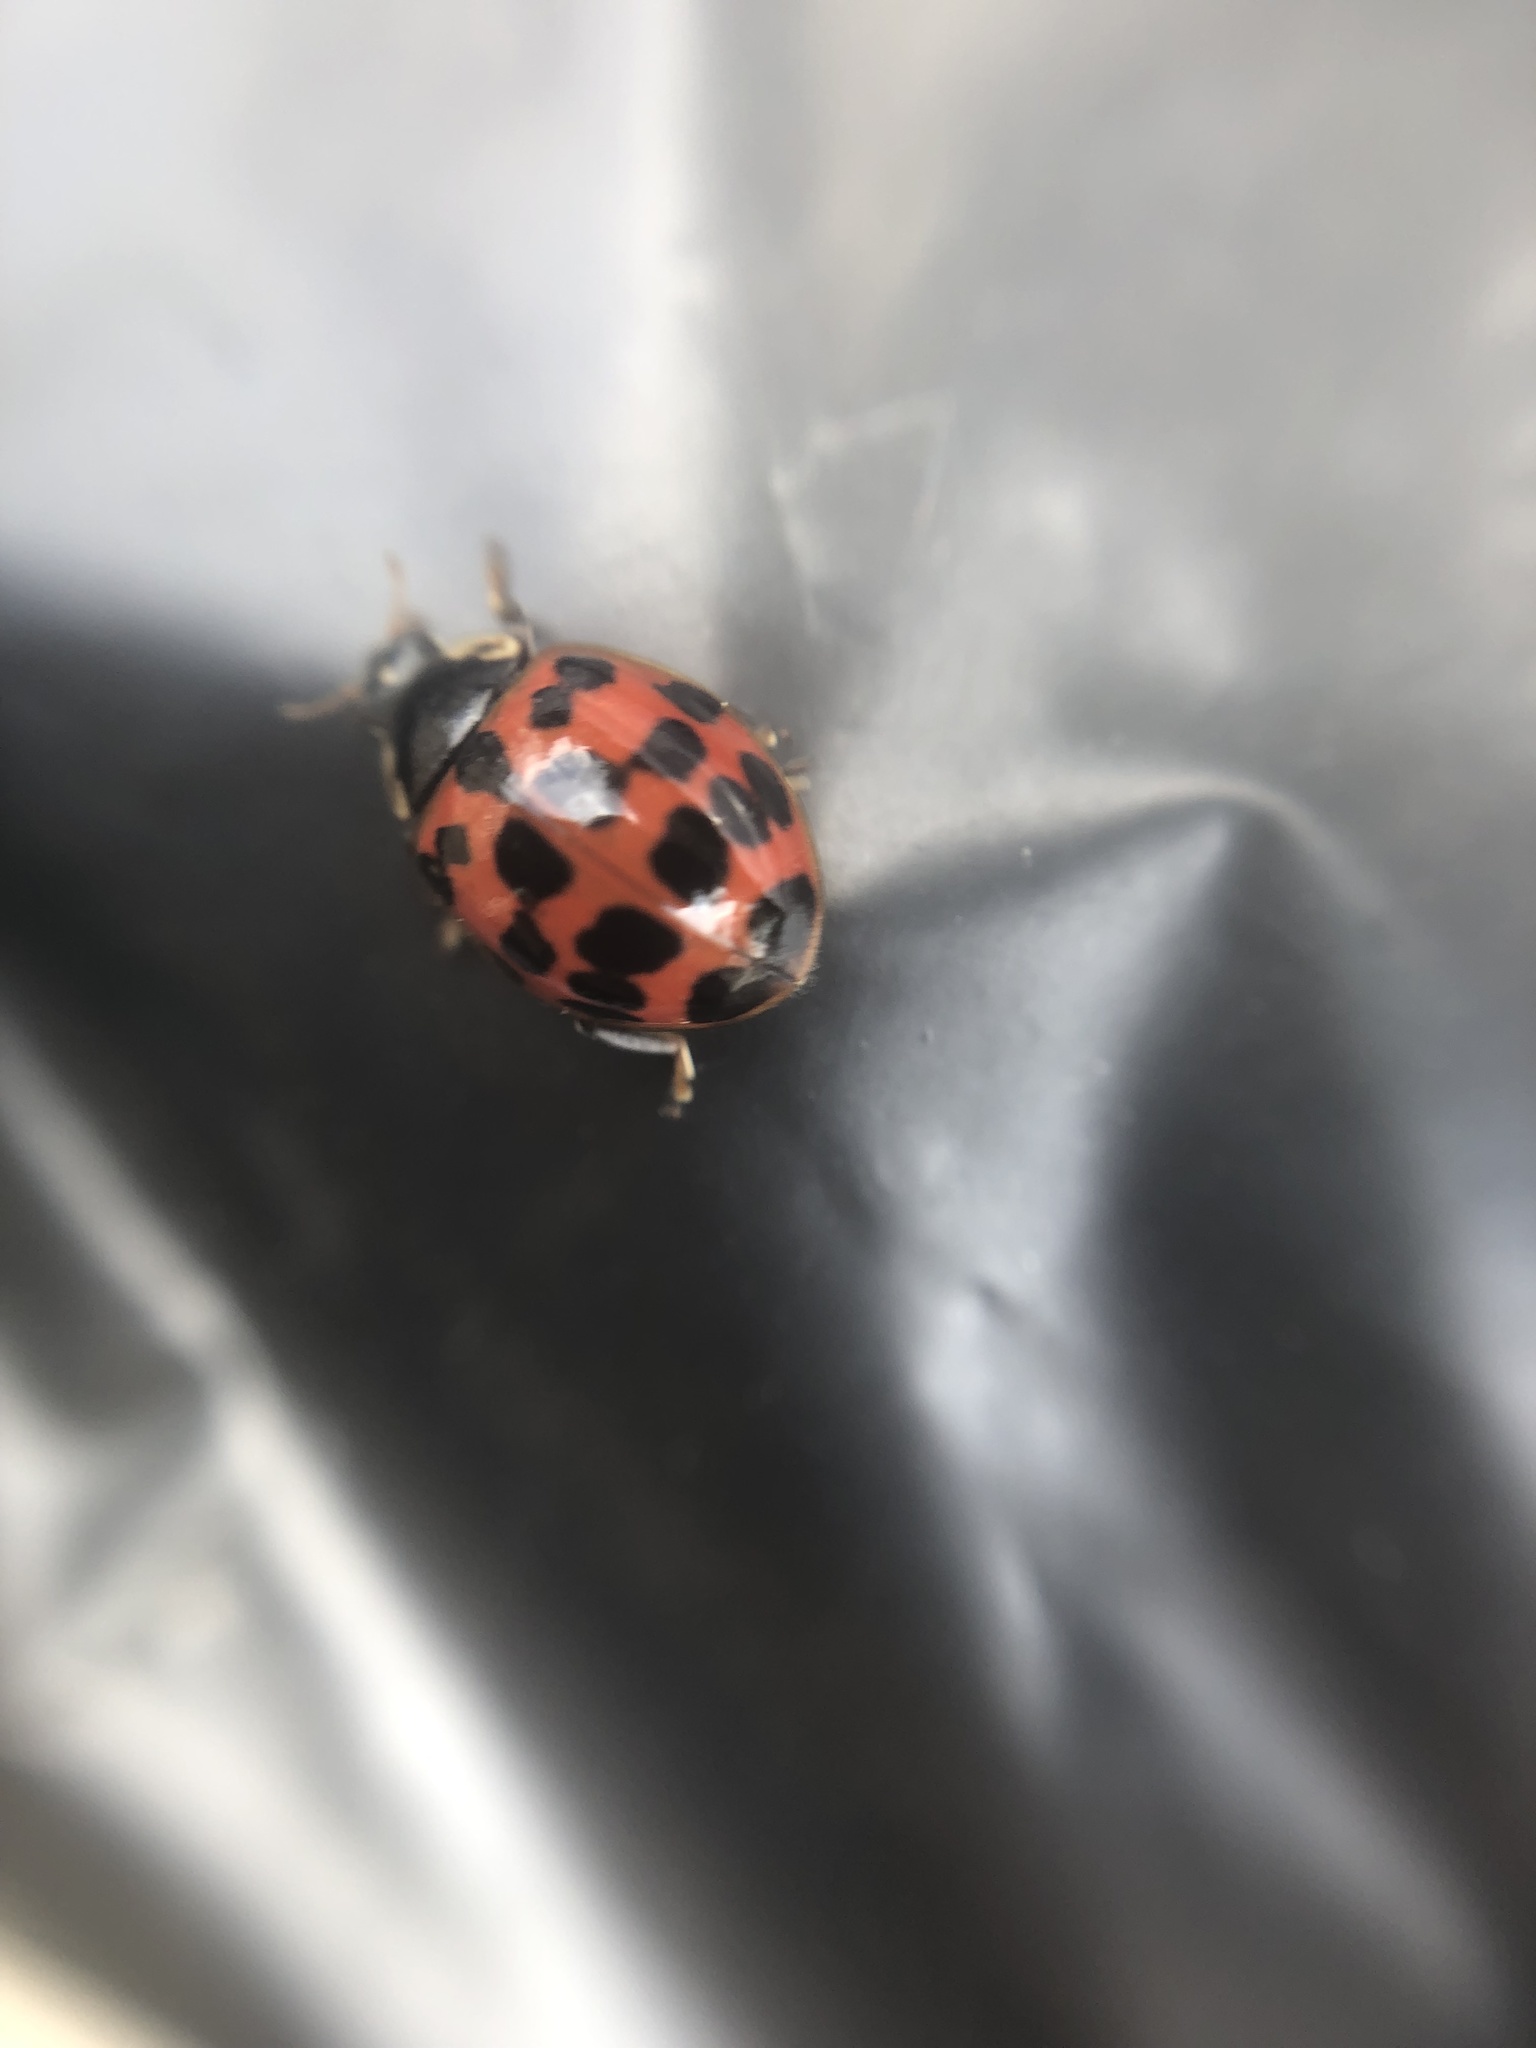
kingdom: Animalia
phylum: Arthropoda
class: Insecta
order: Coleoptera
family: Coccinellidae
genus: Harmonia
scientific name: Harmonia axyridis
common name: Harlequin ladybird
